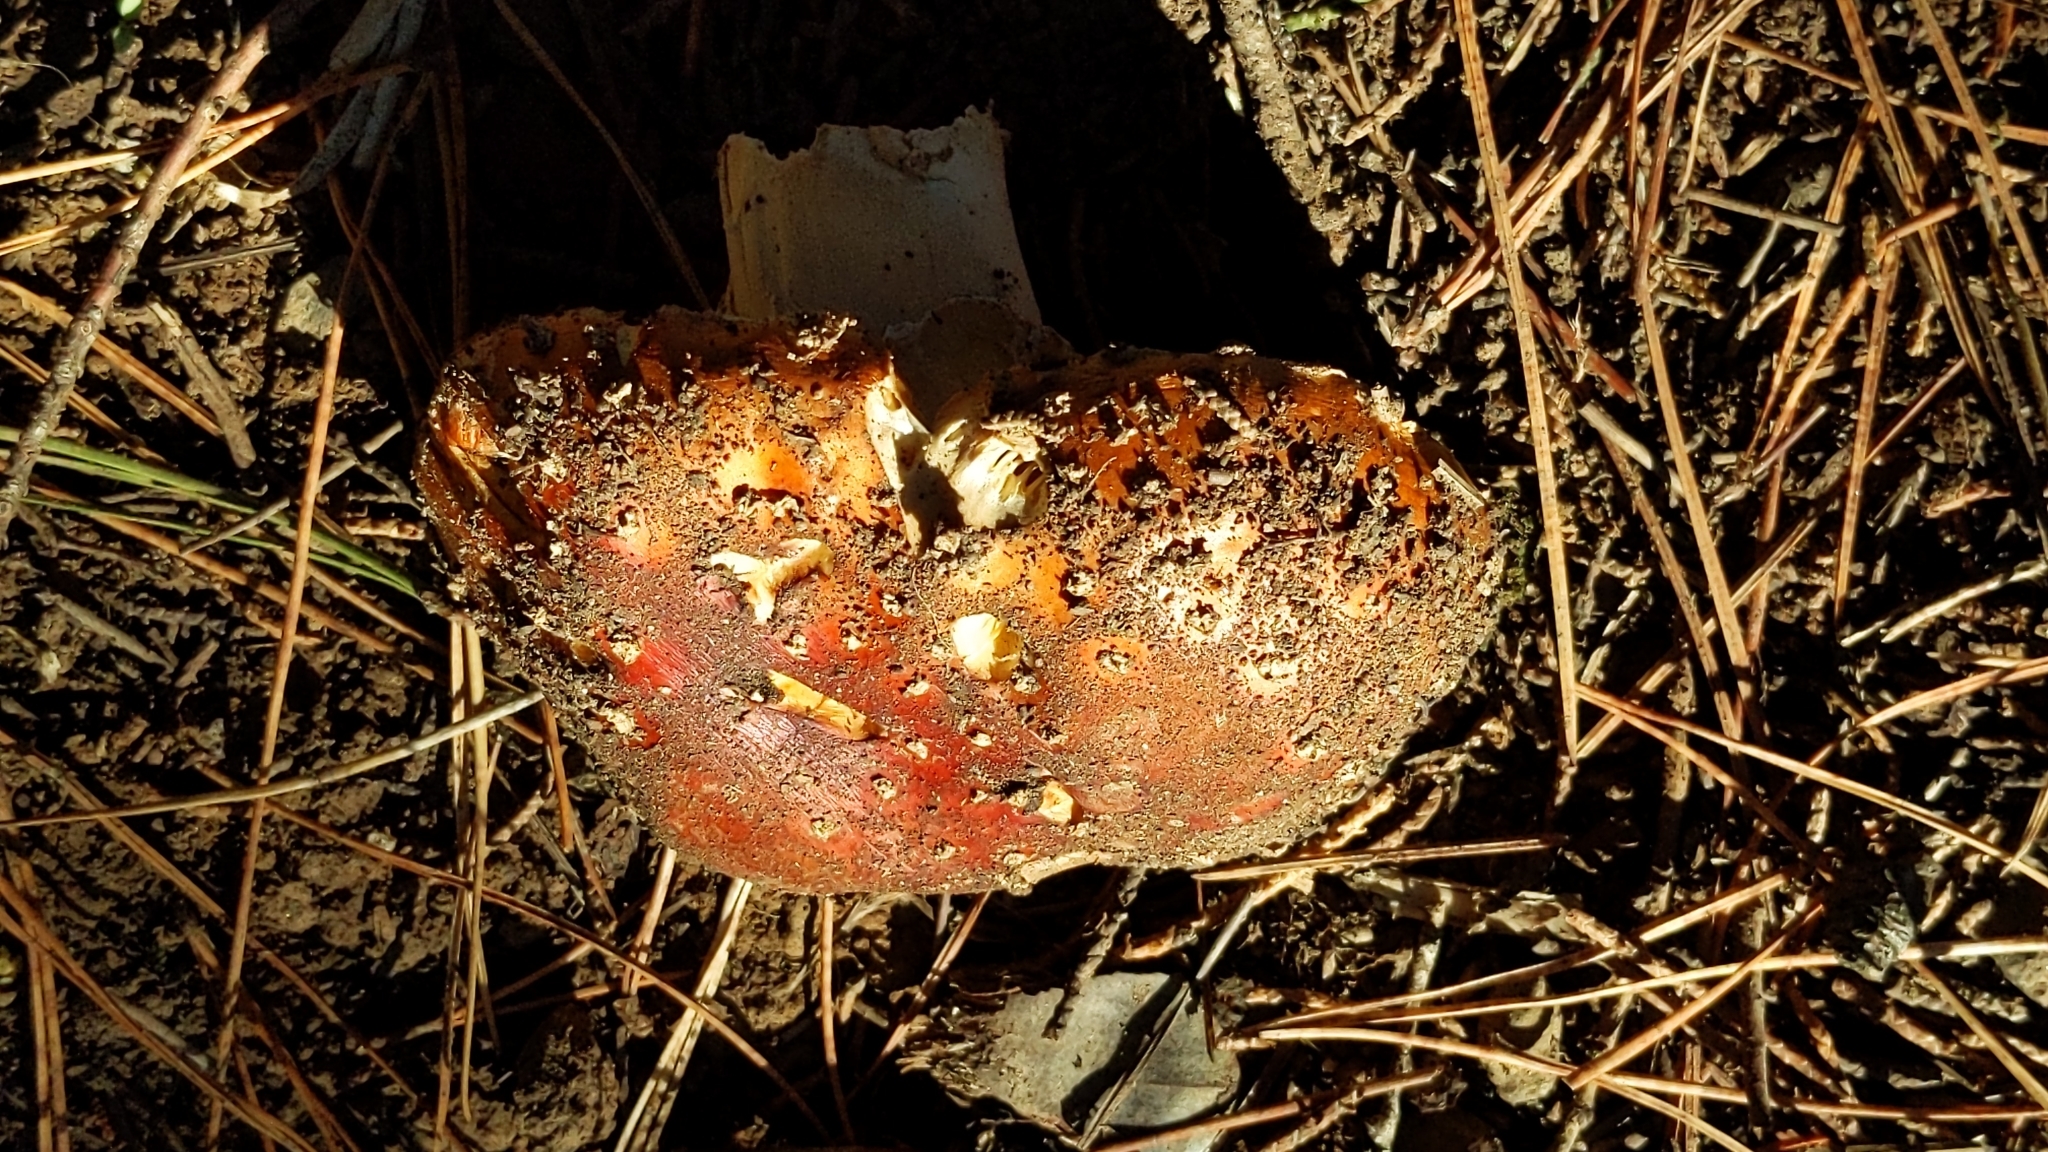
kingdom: Fungi
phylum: Basidiomycota
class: Agaricomycetes
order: Agaricales
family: Amanitaceae
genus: Amanita
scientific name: Amanita muscaria
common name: Fly agaric
